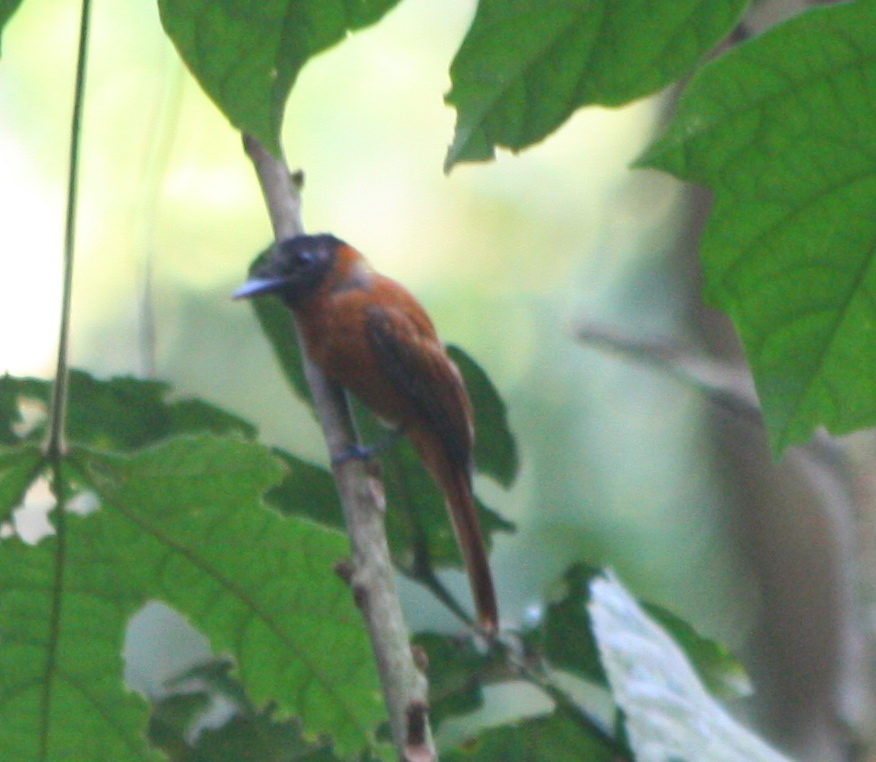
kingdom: Animalia
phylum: Chordata
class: Aves
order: Passeriformes
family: Monarchidae
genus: Terpsiphone
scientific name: Terpsiphone rufiventer
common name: Red-bellied paradise flycatcher
